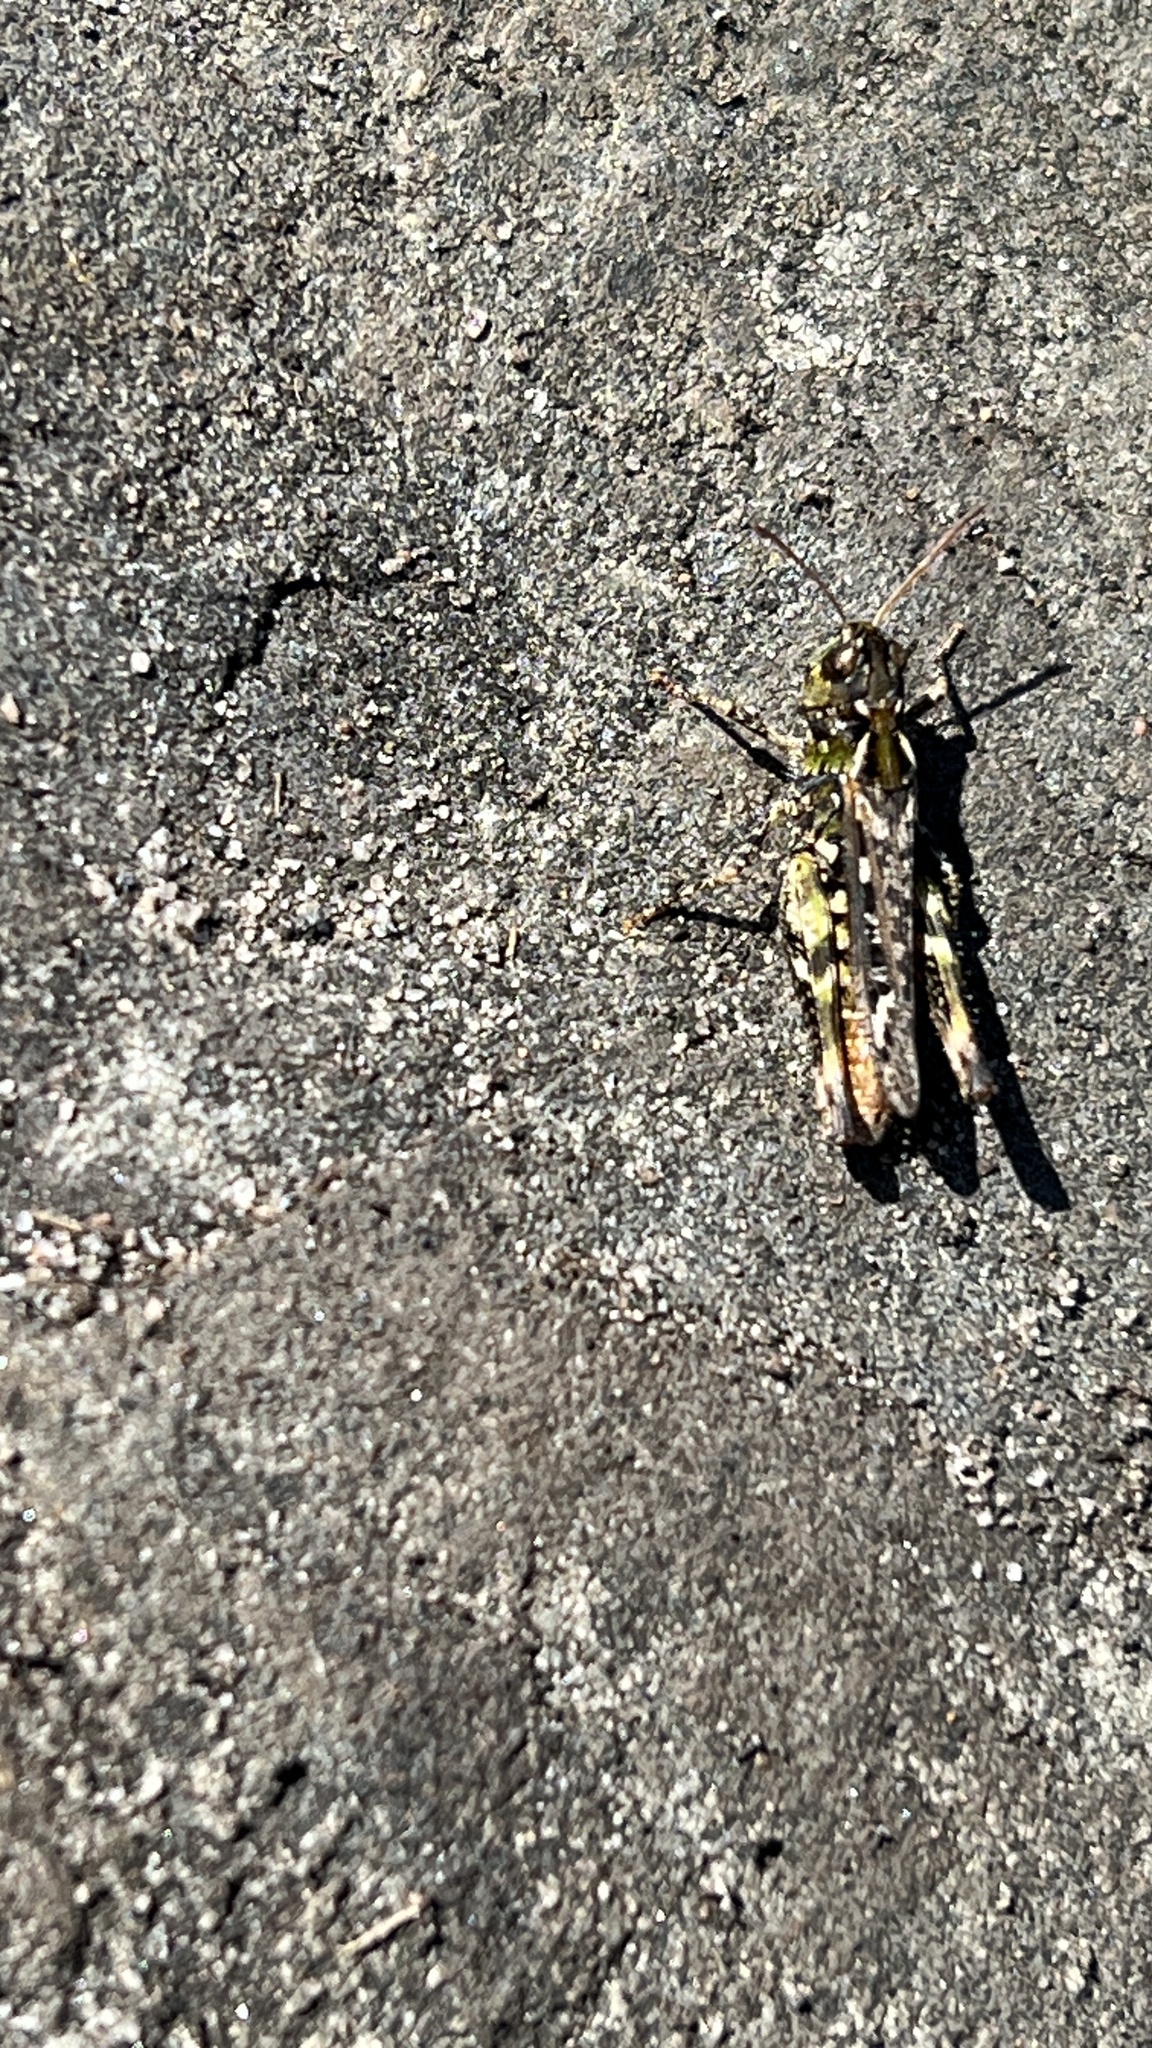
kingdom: Animalia
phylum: Arthropoda
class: Insecta
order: Orthoptera
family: Acrididae
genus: Myrmeleotettix
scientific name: Myrmeleotettix maculatus
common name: Mottled grasshopper
